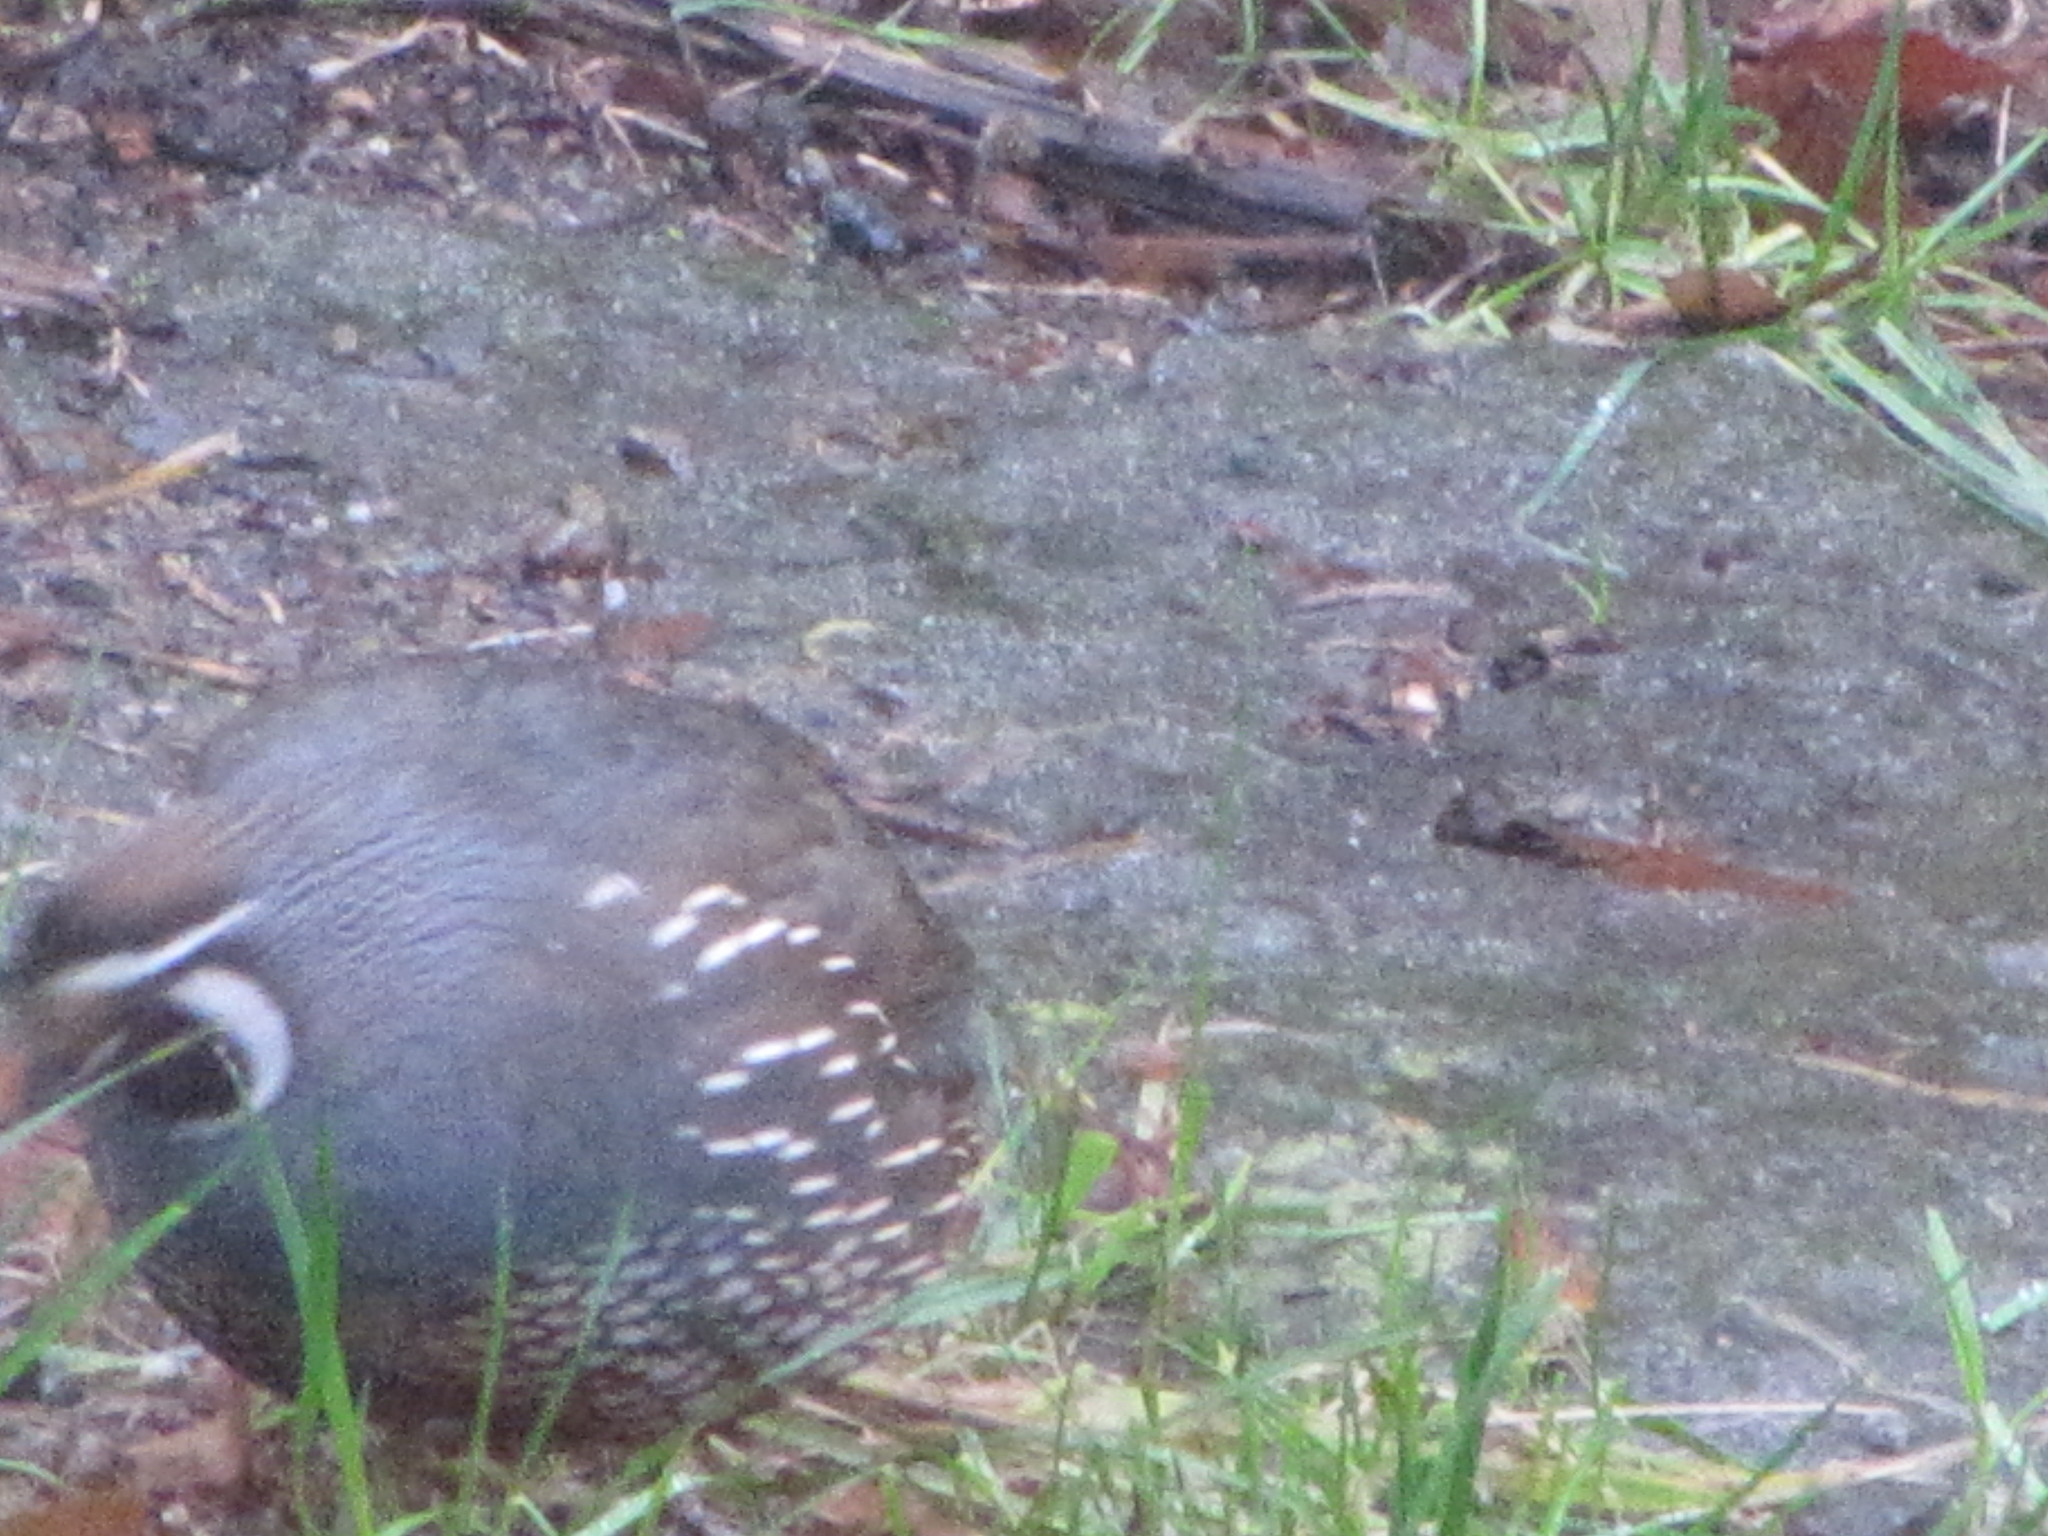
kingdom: Animalia
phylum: Chordata
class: Aves
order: Galliformes
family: Odontophoridae
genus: Callipepla
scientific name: Callipepla californica
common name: California quail
